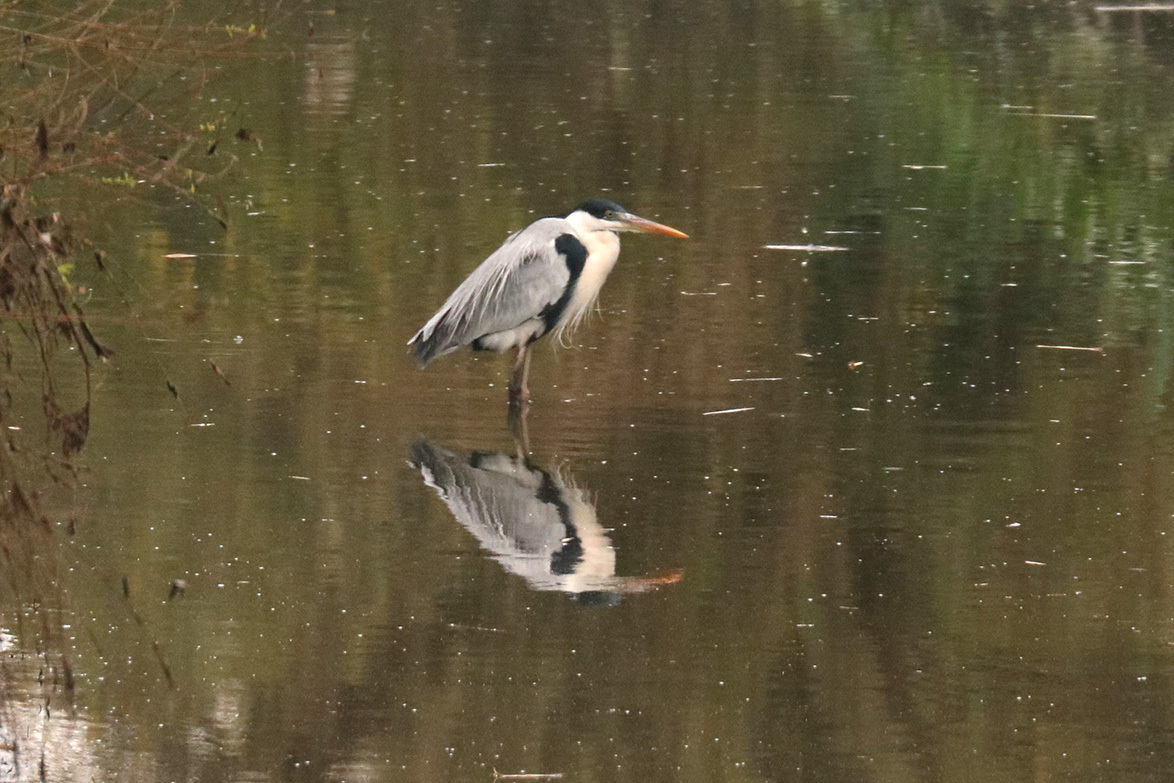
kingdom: Animalia
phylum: Chordata
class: Aves
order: Pelecaniformes
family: Ardeidae
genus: Ardea
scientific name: Ardea cocoi
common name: Cocoi heron
